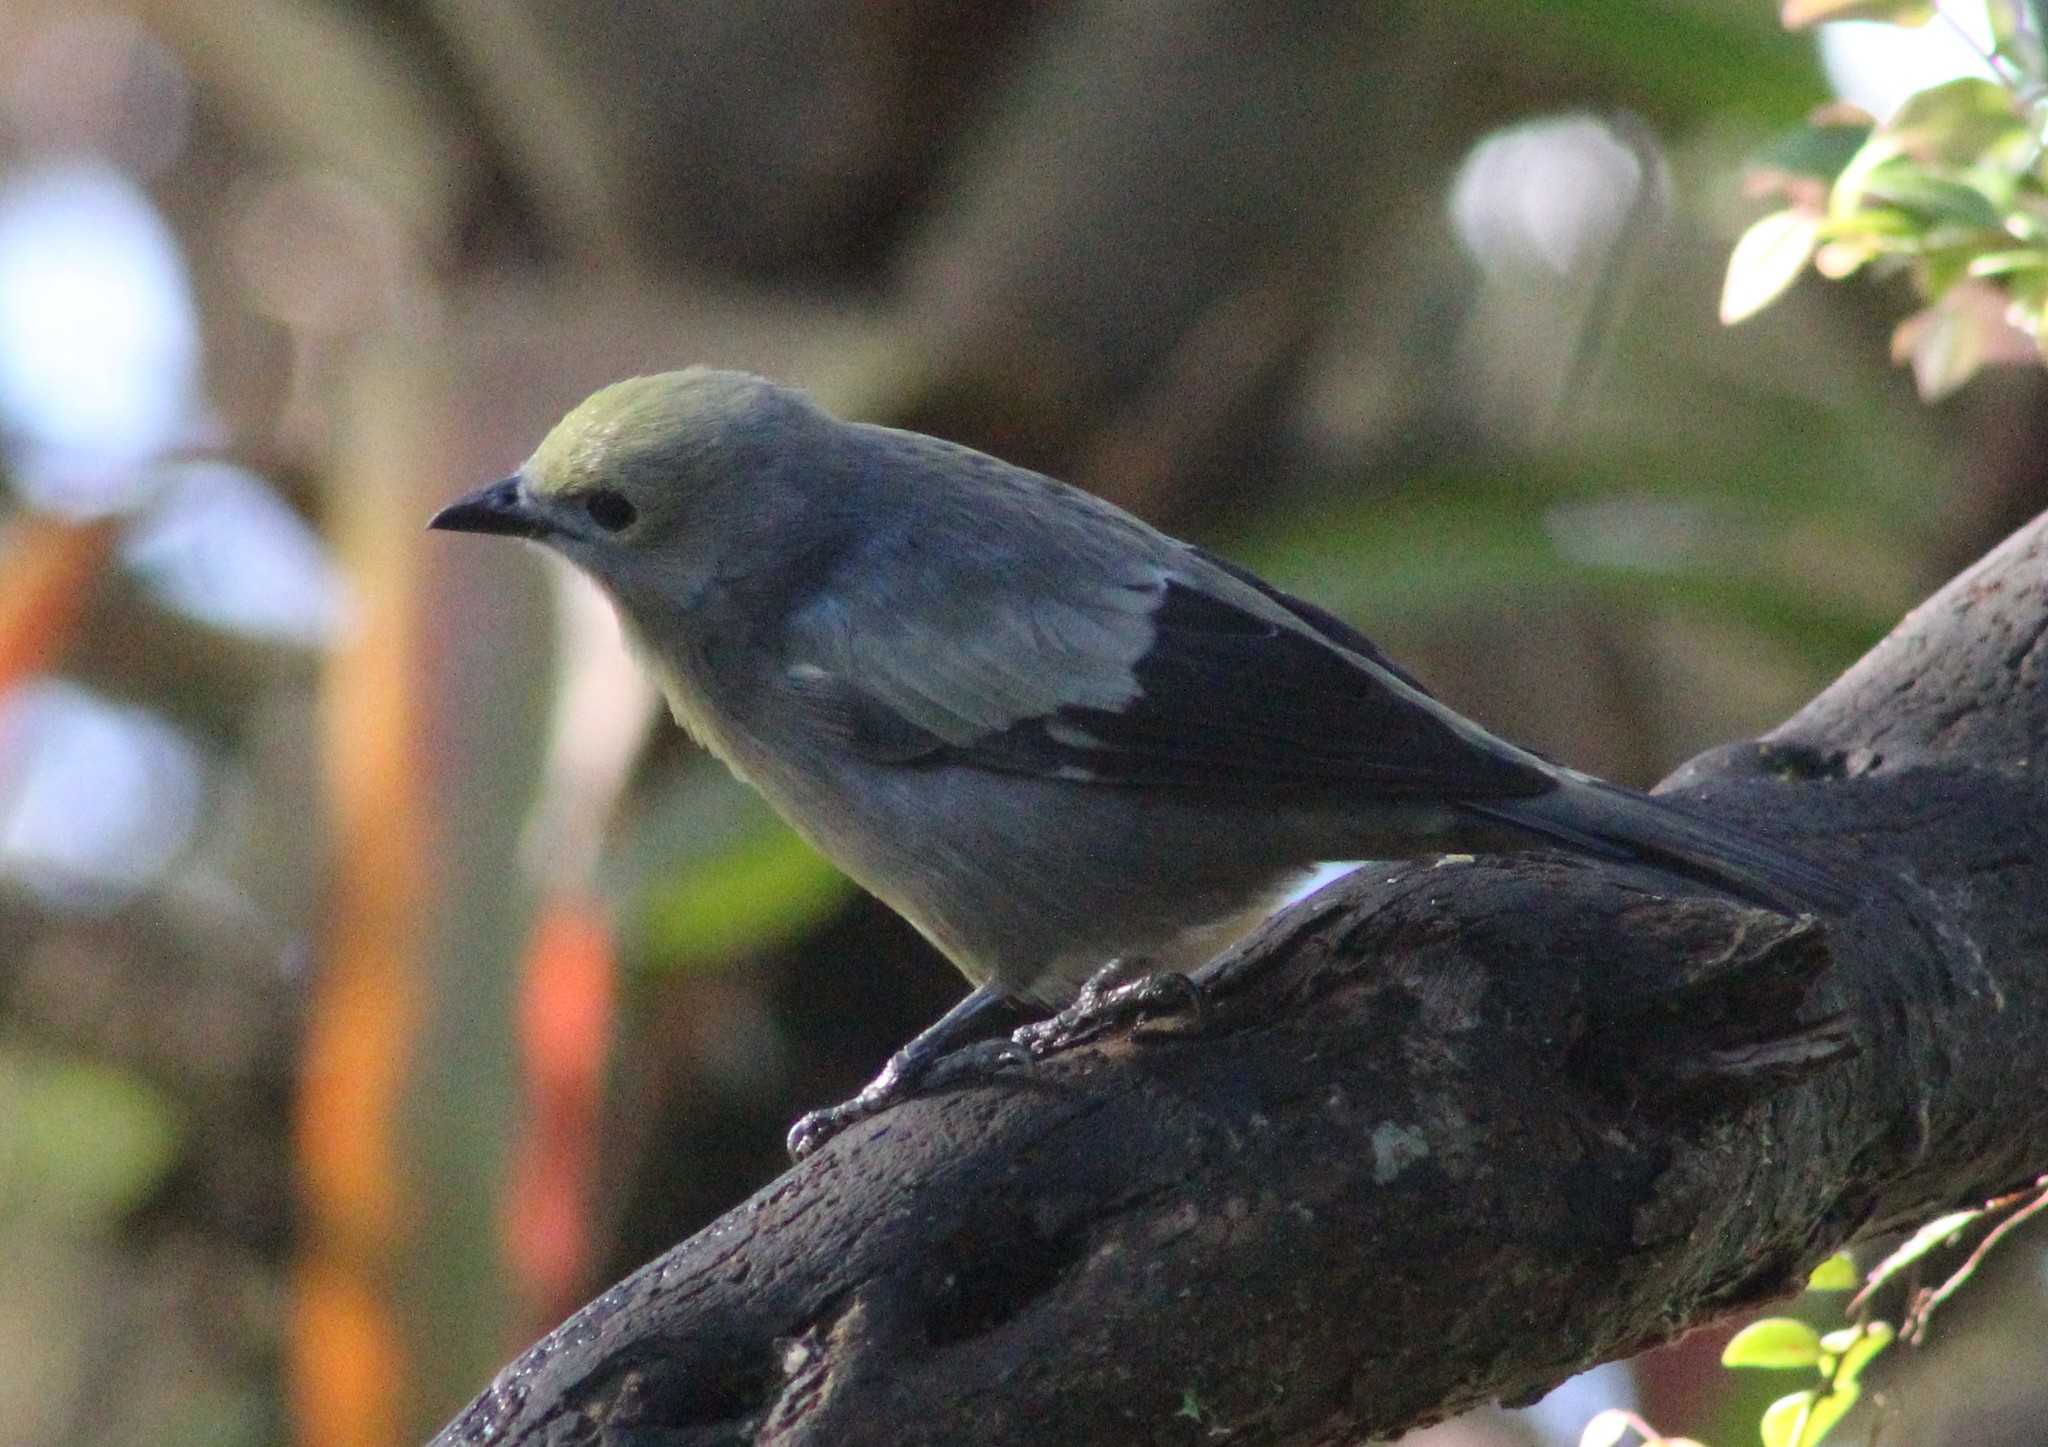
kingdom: Animalia
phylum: Chordata
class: Aves
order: Passeriformes
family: Thraupidae
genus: Thraupis
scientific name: Thraupis palmarum
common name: Palm tanager
